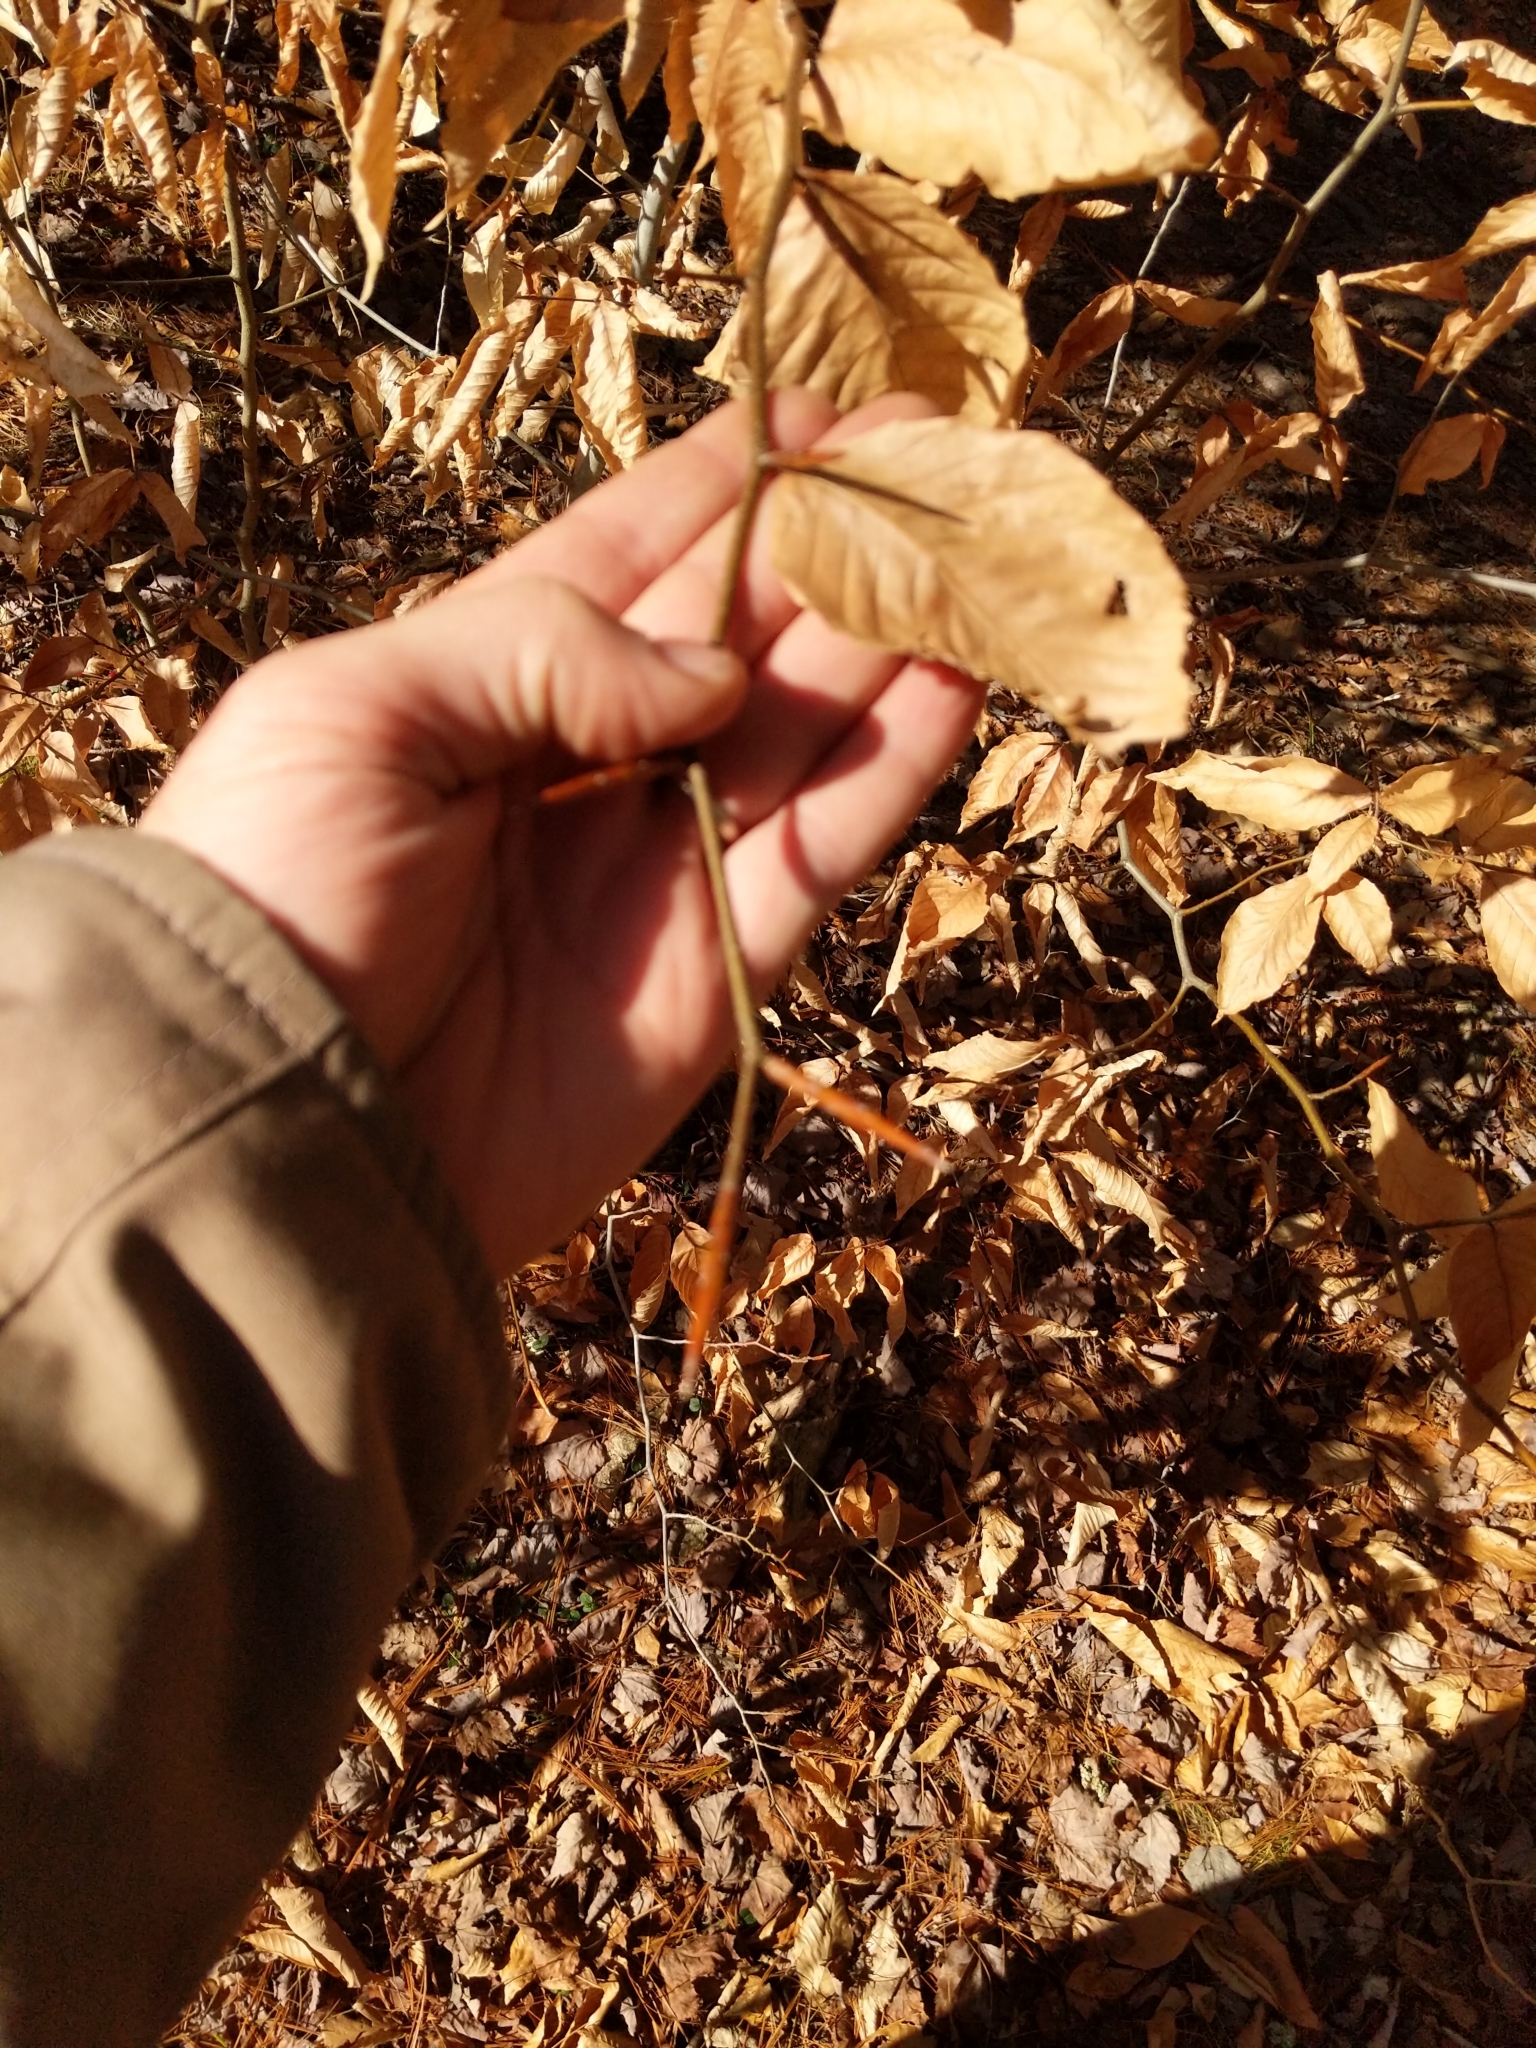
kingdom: Plantae
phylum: Tracheophyta
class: Magnoliopsida
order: Fagales
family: Fagaceae
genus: Fagus
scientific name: Fagus grandifolia
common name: American beech
